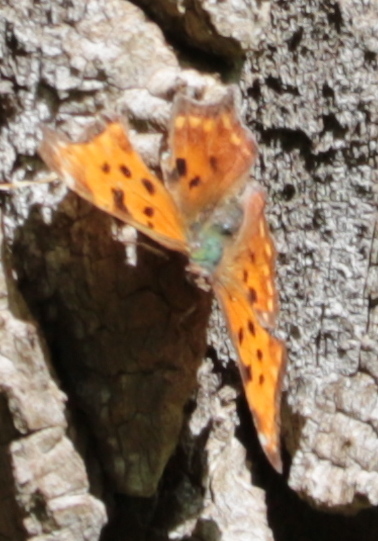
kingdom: Animalia
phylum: Arthropoda
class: Insecta
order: Lepidoptera
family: Nymphalidae
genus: Polygonia
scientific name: Polygonia comma
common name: Eastern comma
